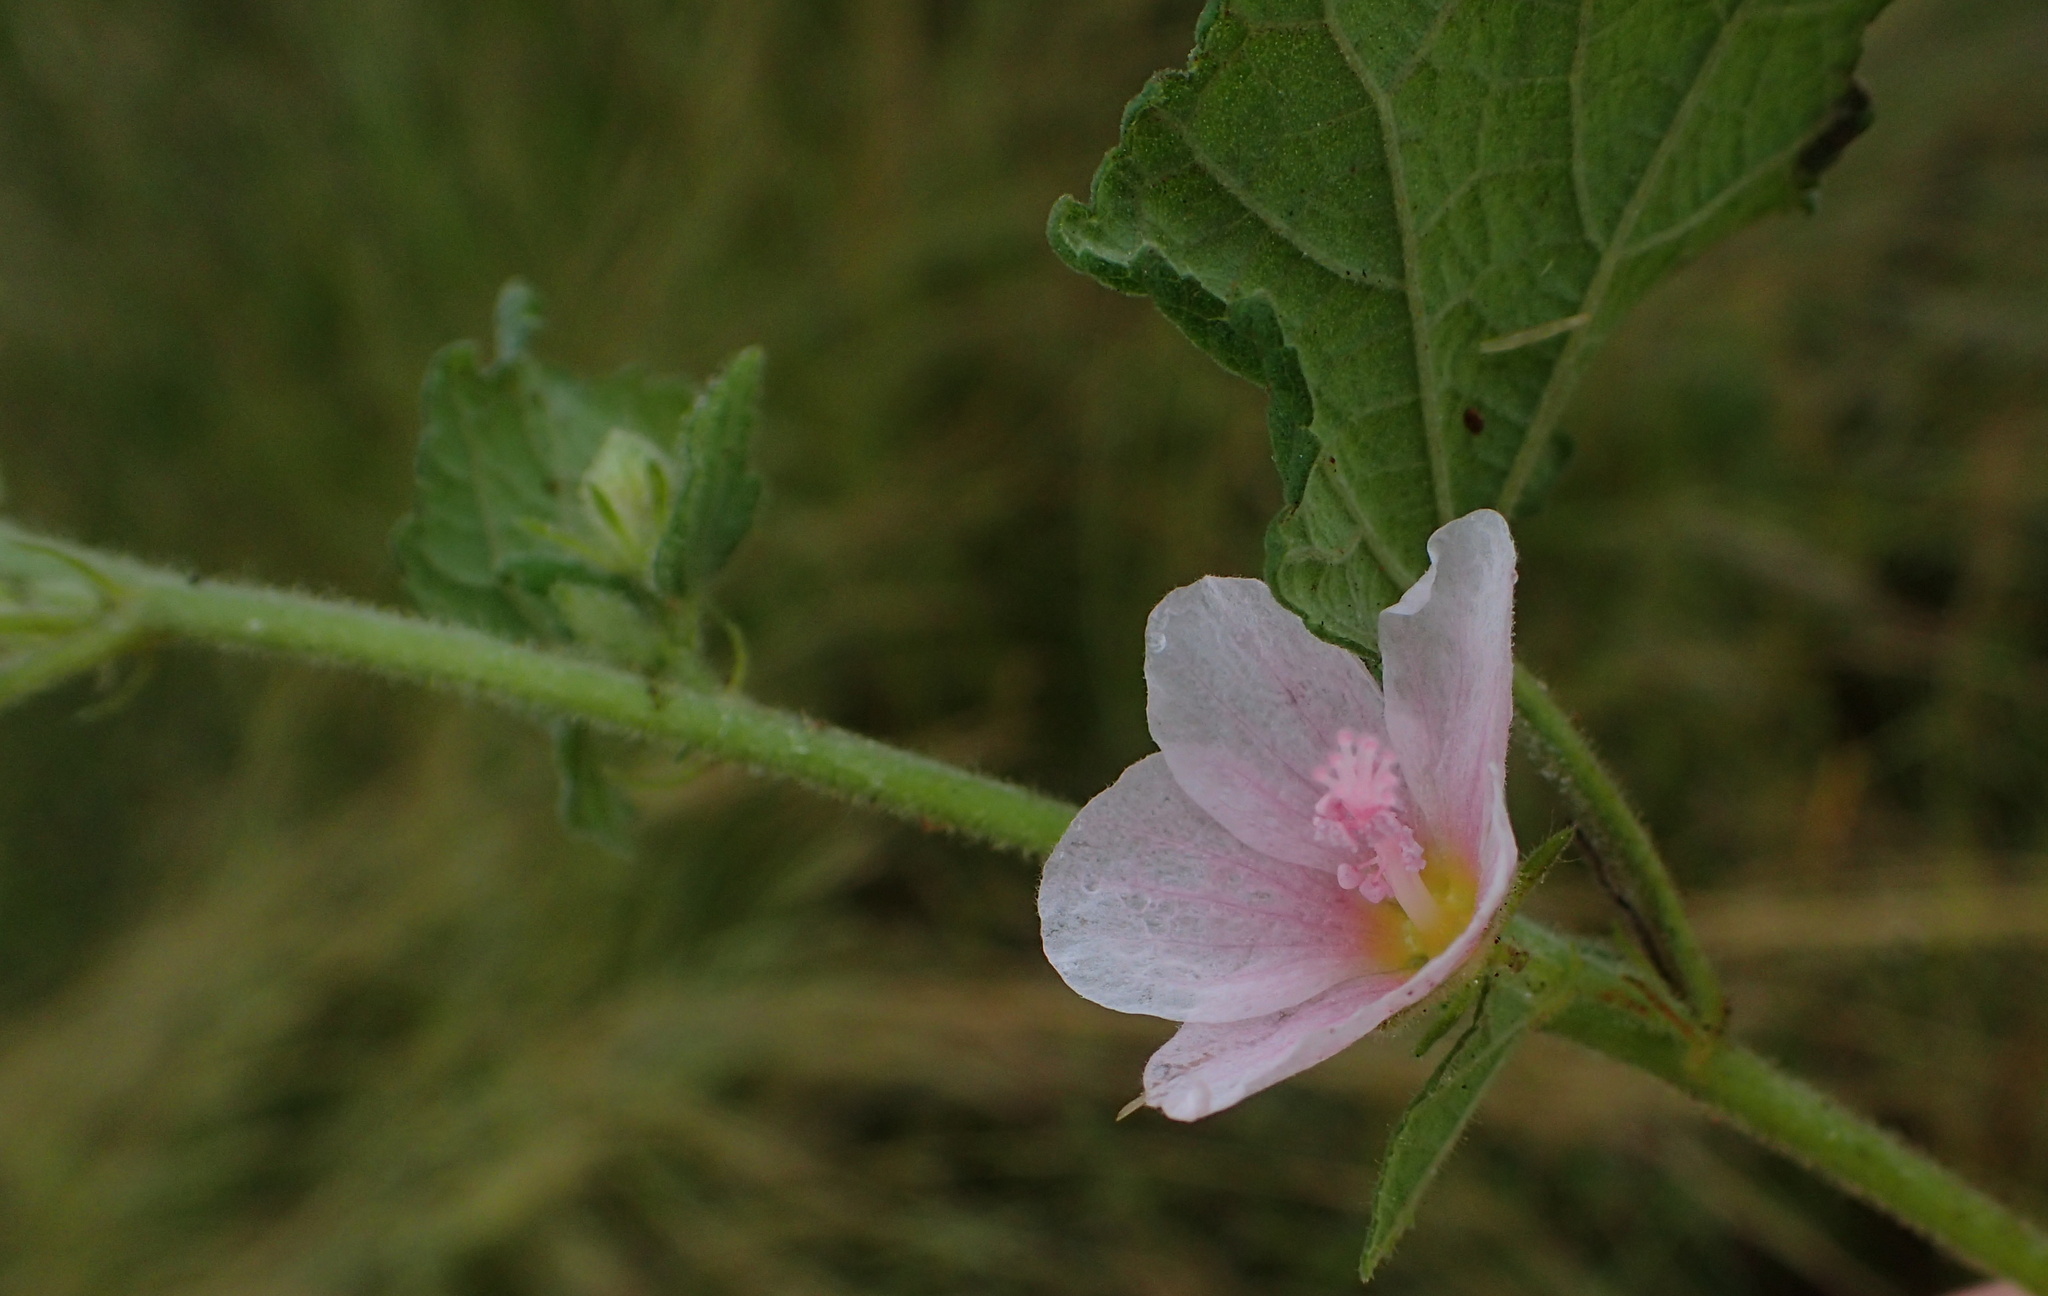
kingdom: Plantae
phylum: Tracheophyta
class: Magnoliopsida
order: Malvales
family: Malvaceae
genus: Pavonia
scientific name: Pavonia columella
